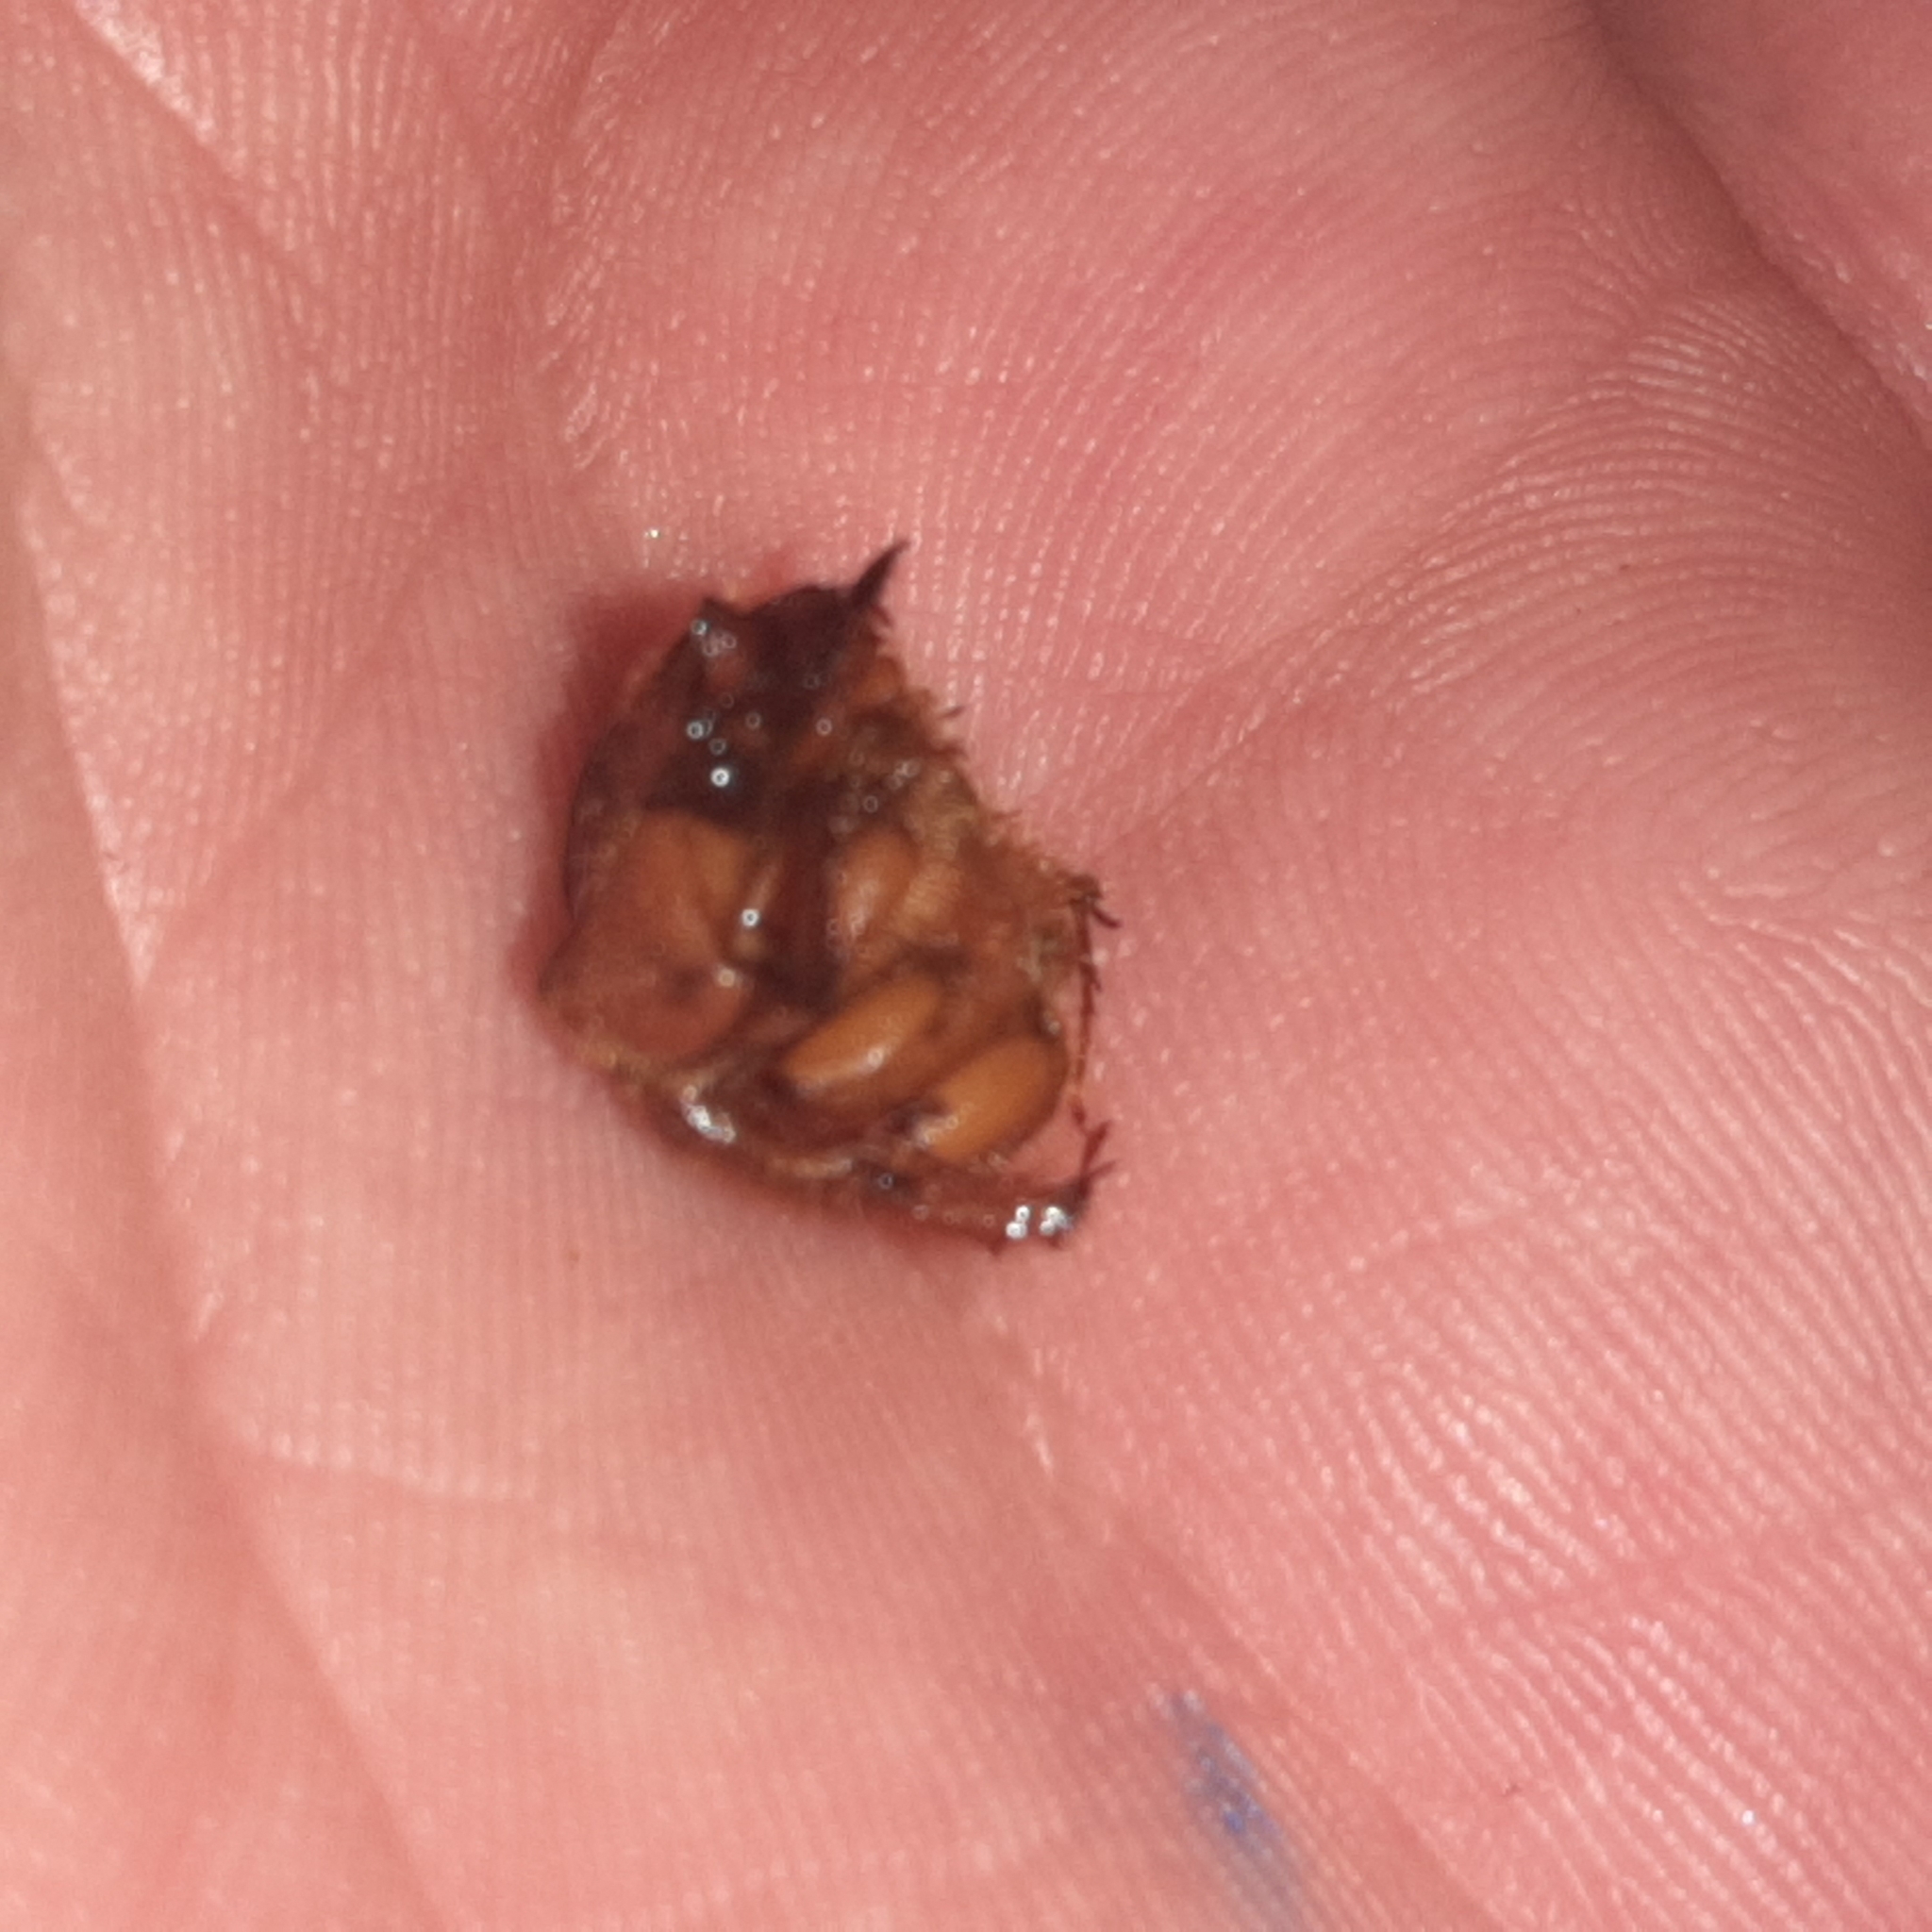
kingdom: Animalia
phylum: Arthropoda
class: Insecta
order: Coleoptera
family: Geotrupidae
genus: Neoathyreus
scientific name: Neoathyreus mexicanus
